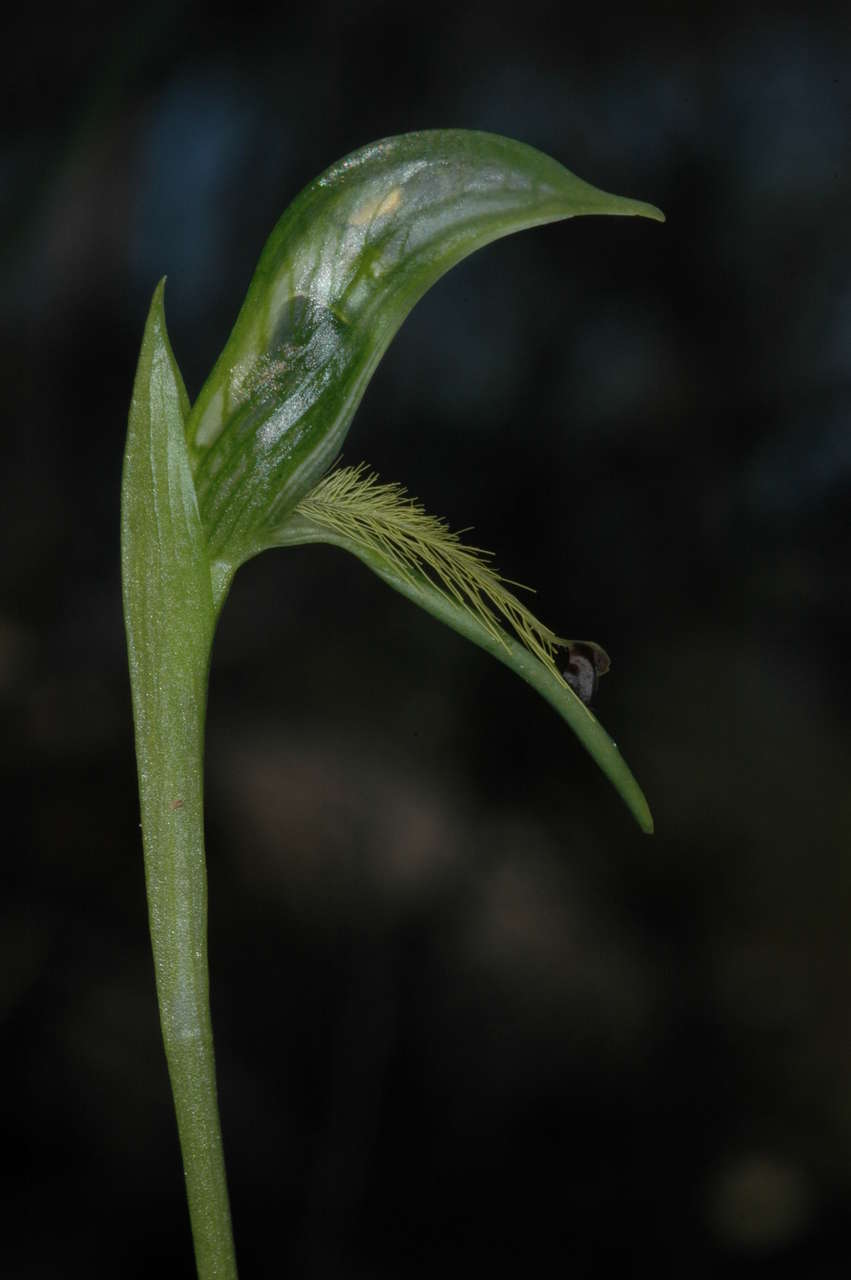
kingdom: Plantae
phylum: Tracheophyta
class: Liliopsida
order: Asparagales
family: Orchidaceae
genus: Pterostylis
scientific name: Pterostylis plumosa
